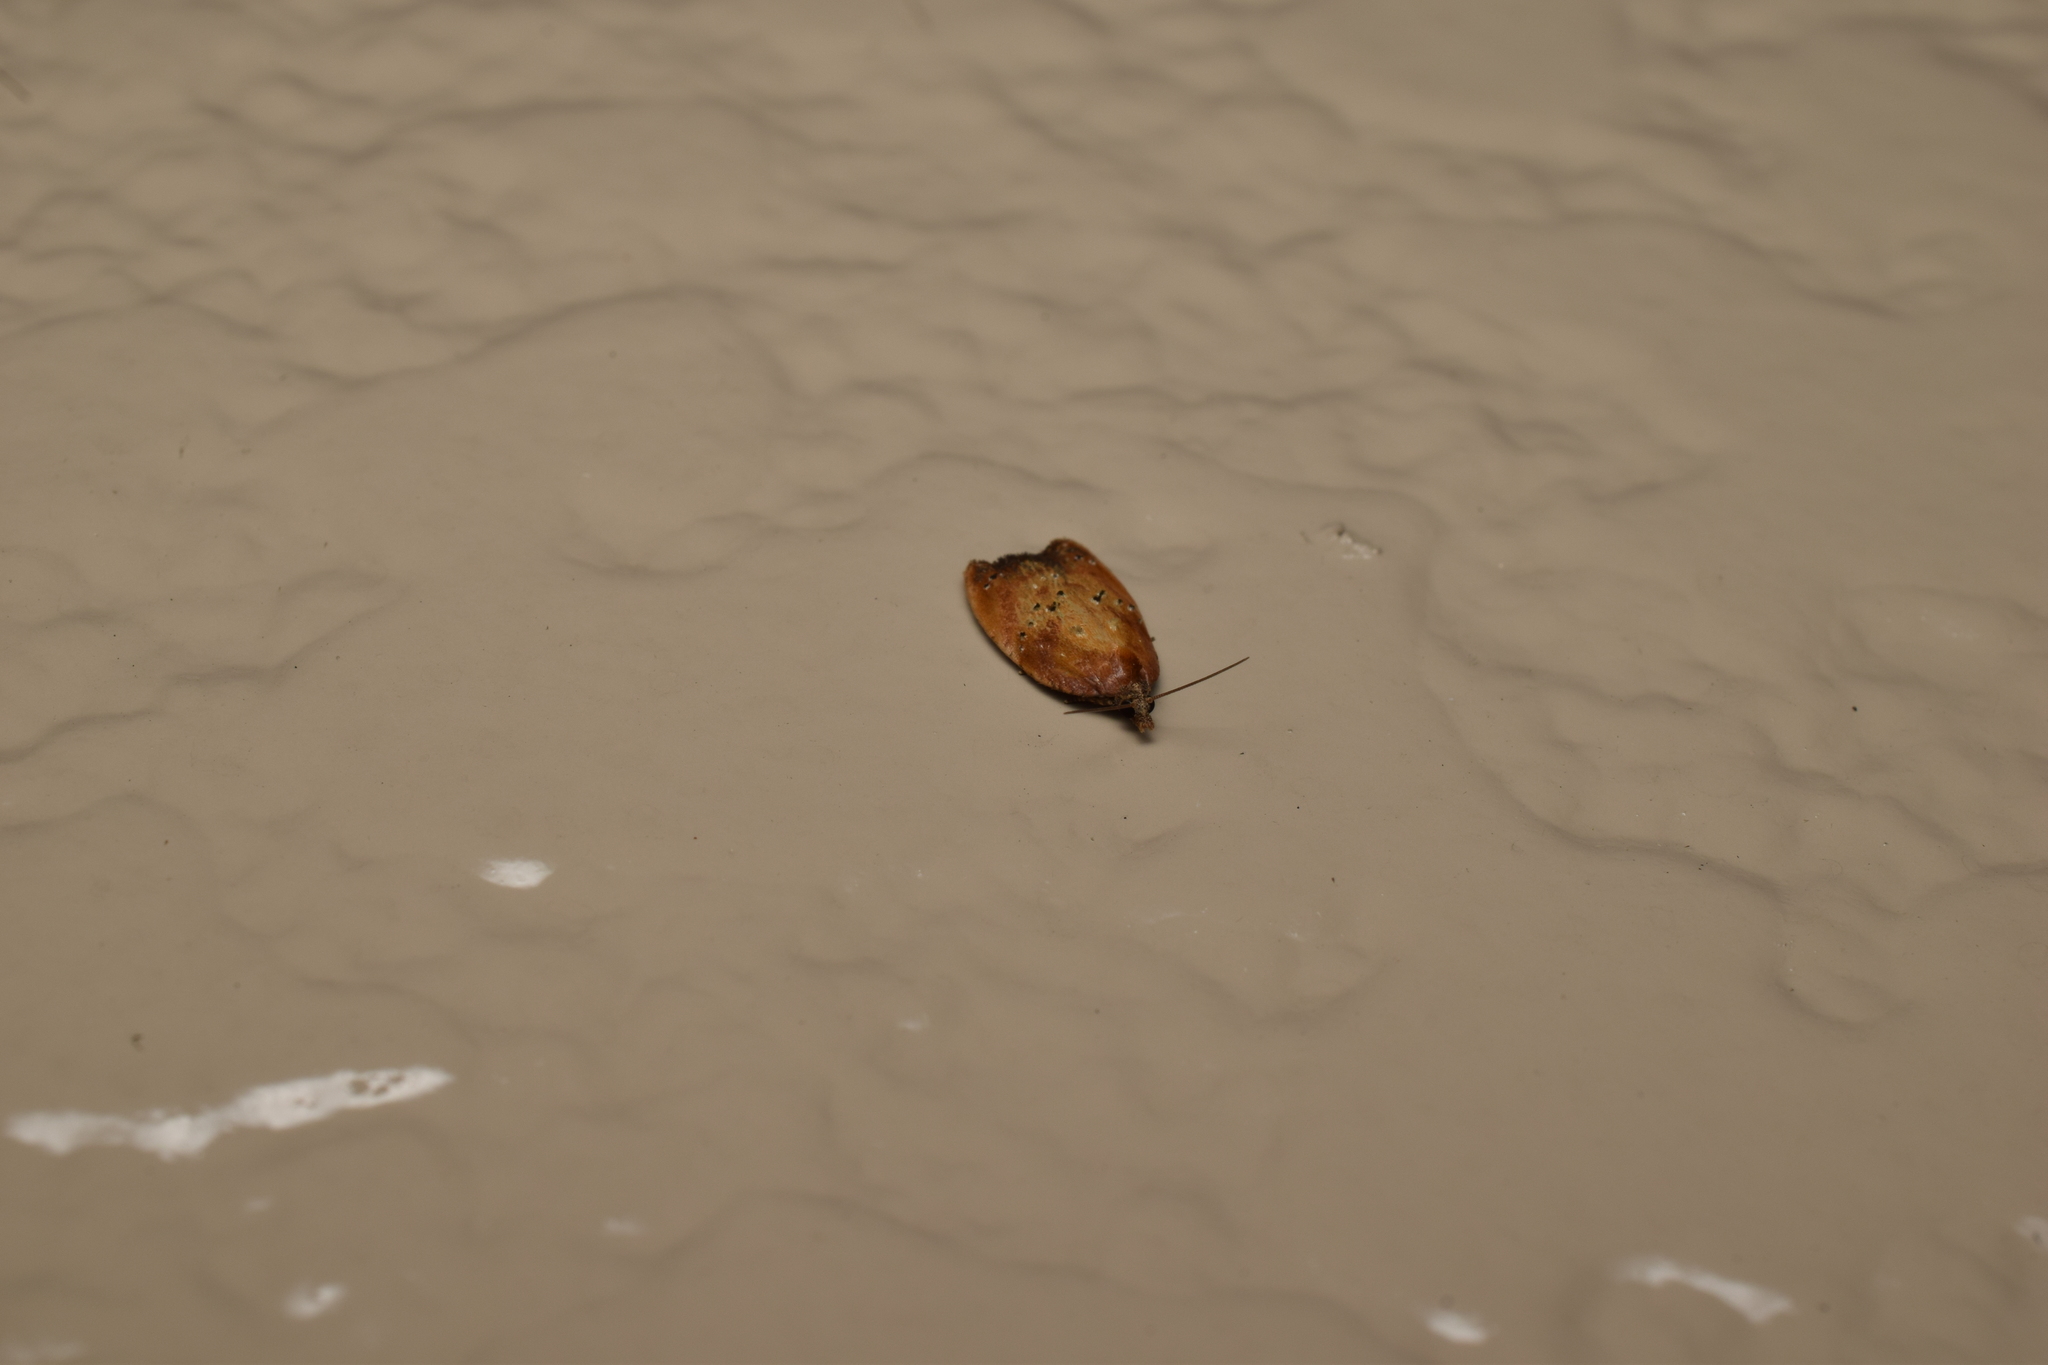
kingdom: Animalia
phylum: Arthropoda
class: Insecta
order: Lepidoptera
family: Tortricidae
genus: Acleris
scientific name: Acleris enitescens
